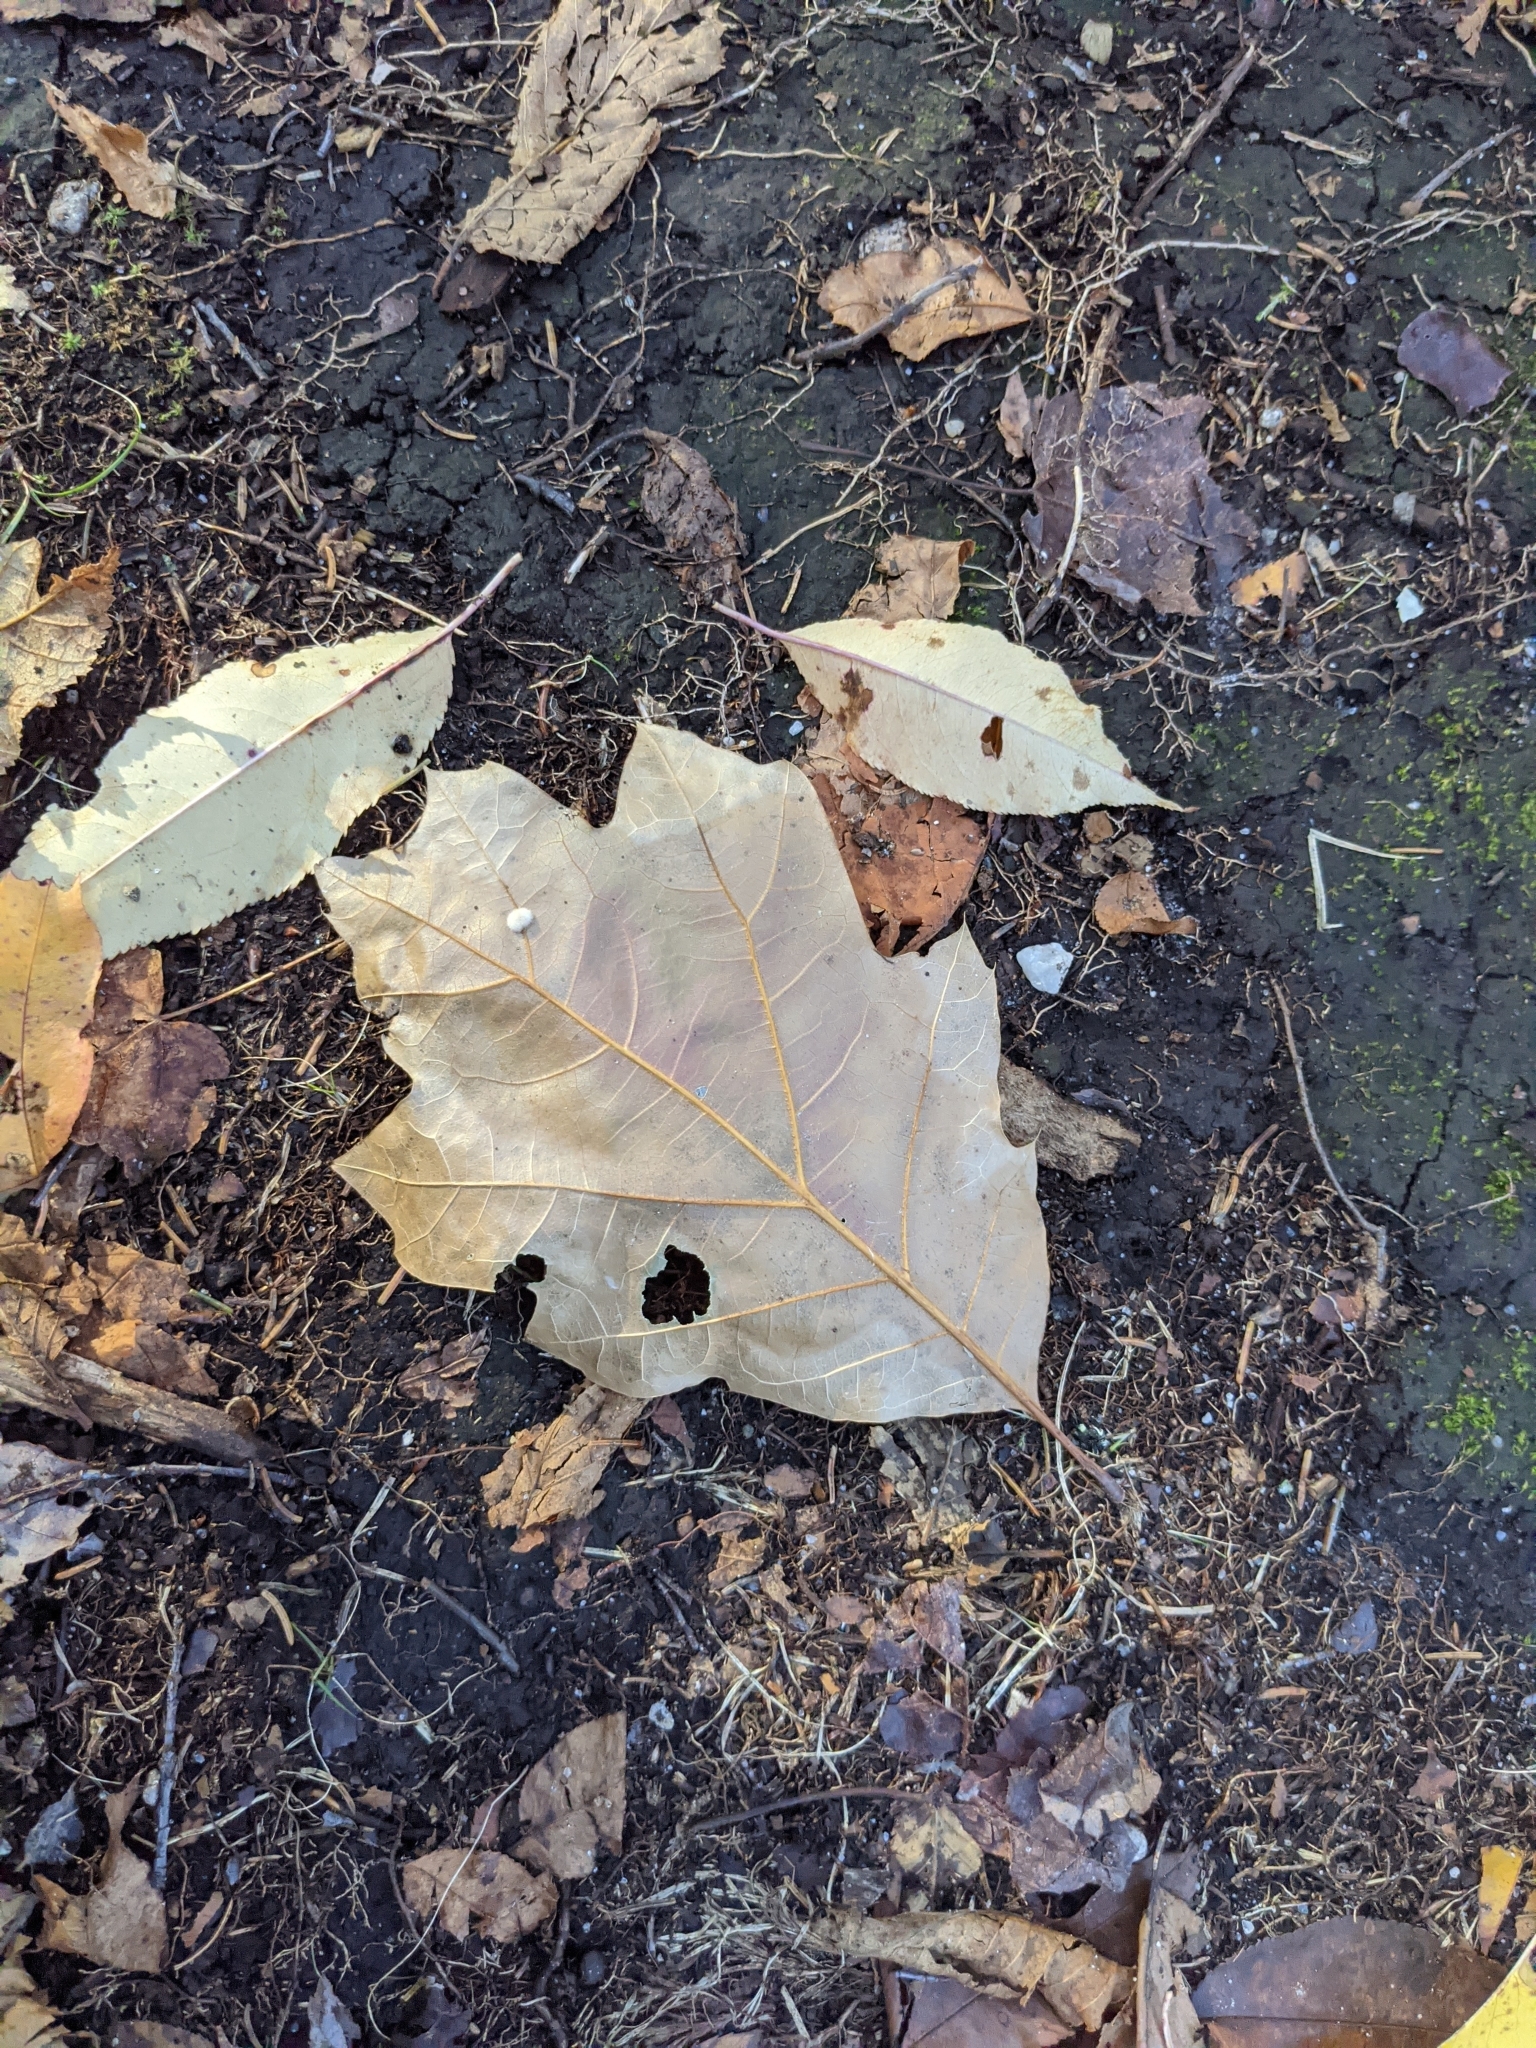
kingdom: Animalia
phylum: Arthropoda
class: Insecta
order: Hymenoptera
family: Cynipidae
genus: Callirhytis
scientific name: Callirhytis
